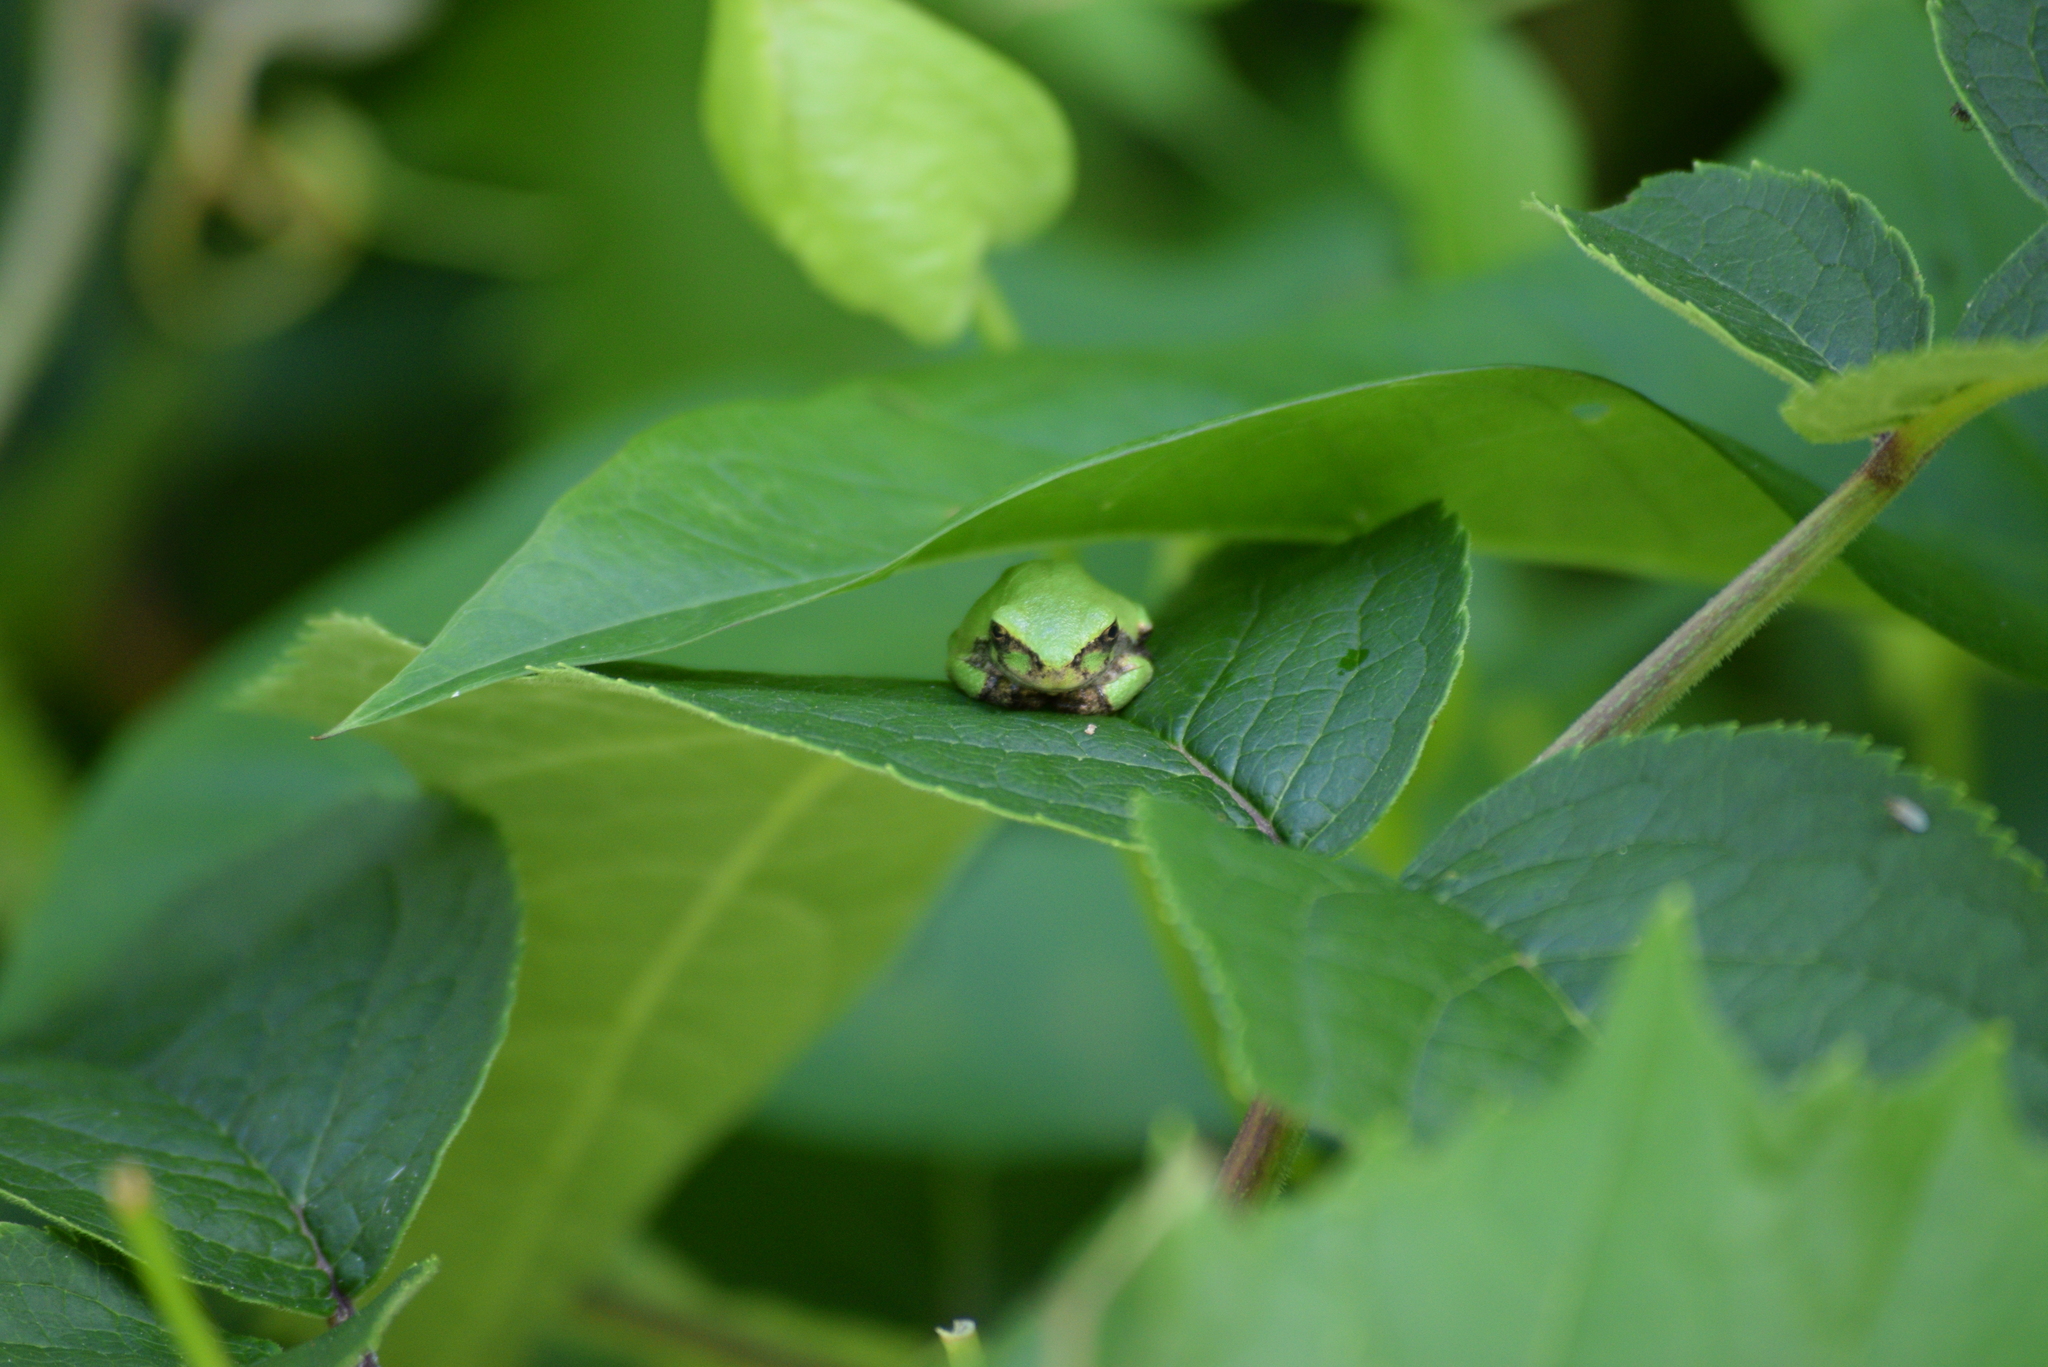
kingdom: Animalia
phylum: Chordata
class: Amphibia
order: Anura
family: Hylidae
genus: Hyla
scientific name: Hyla
